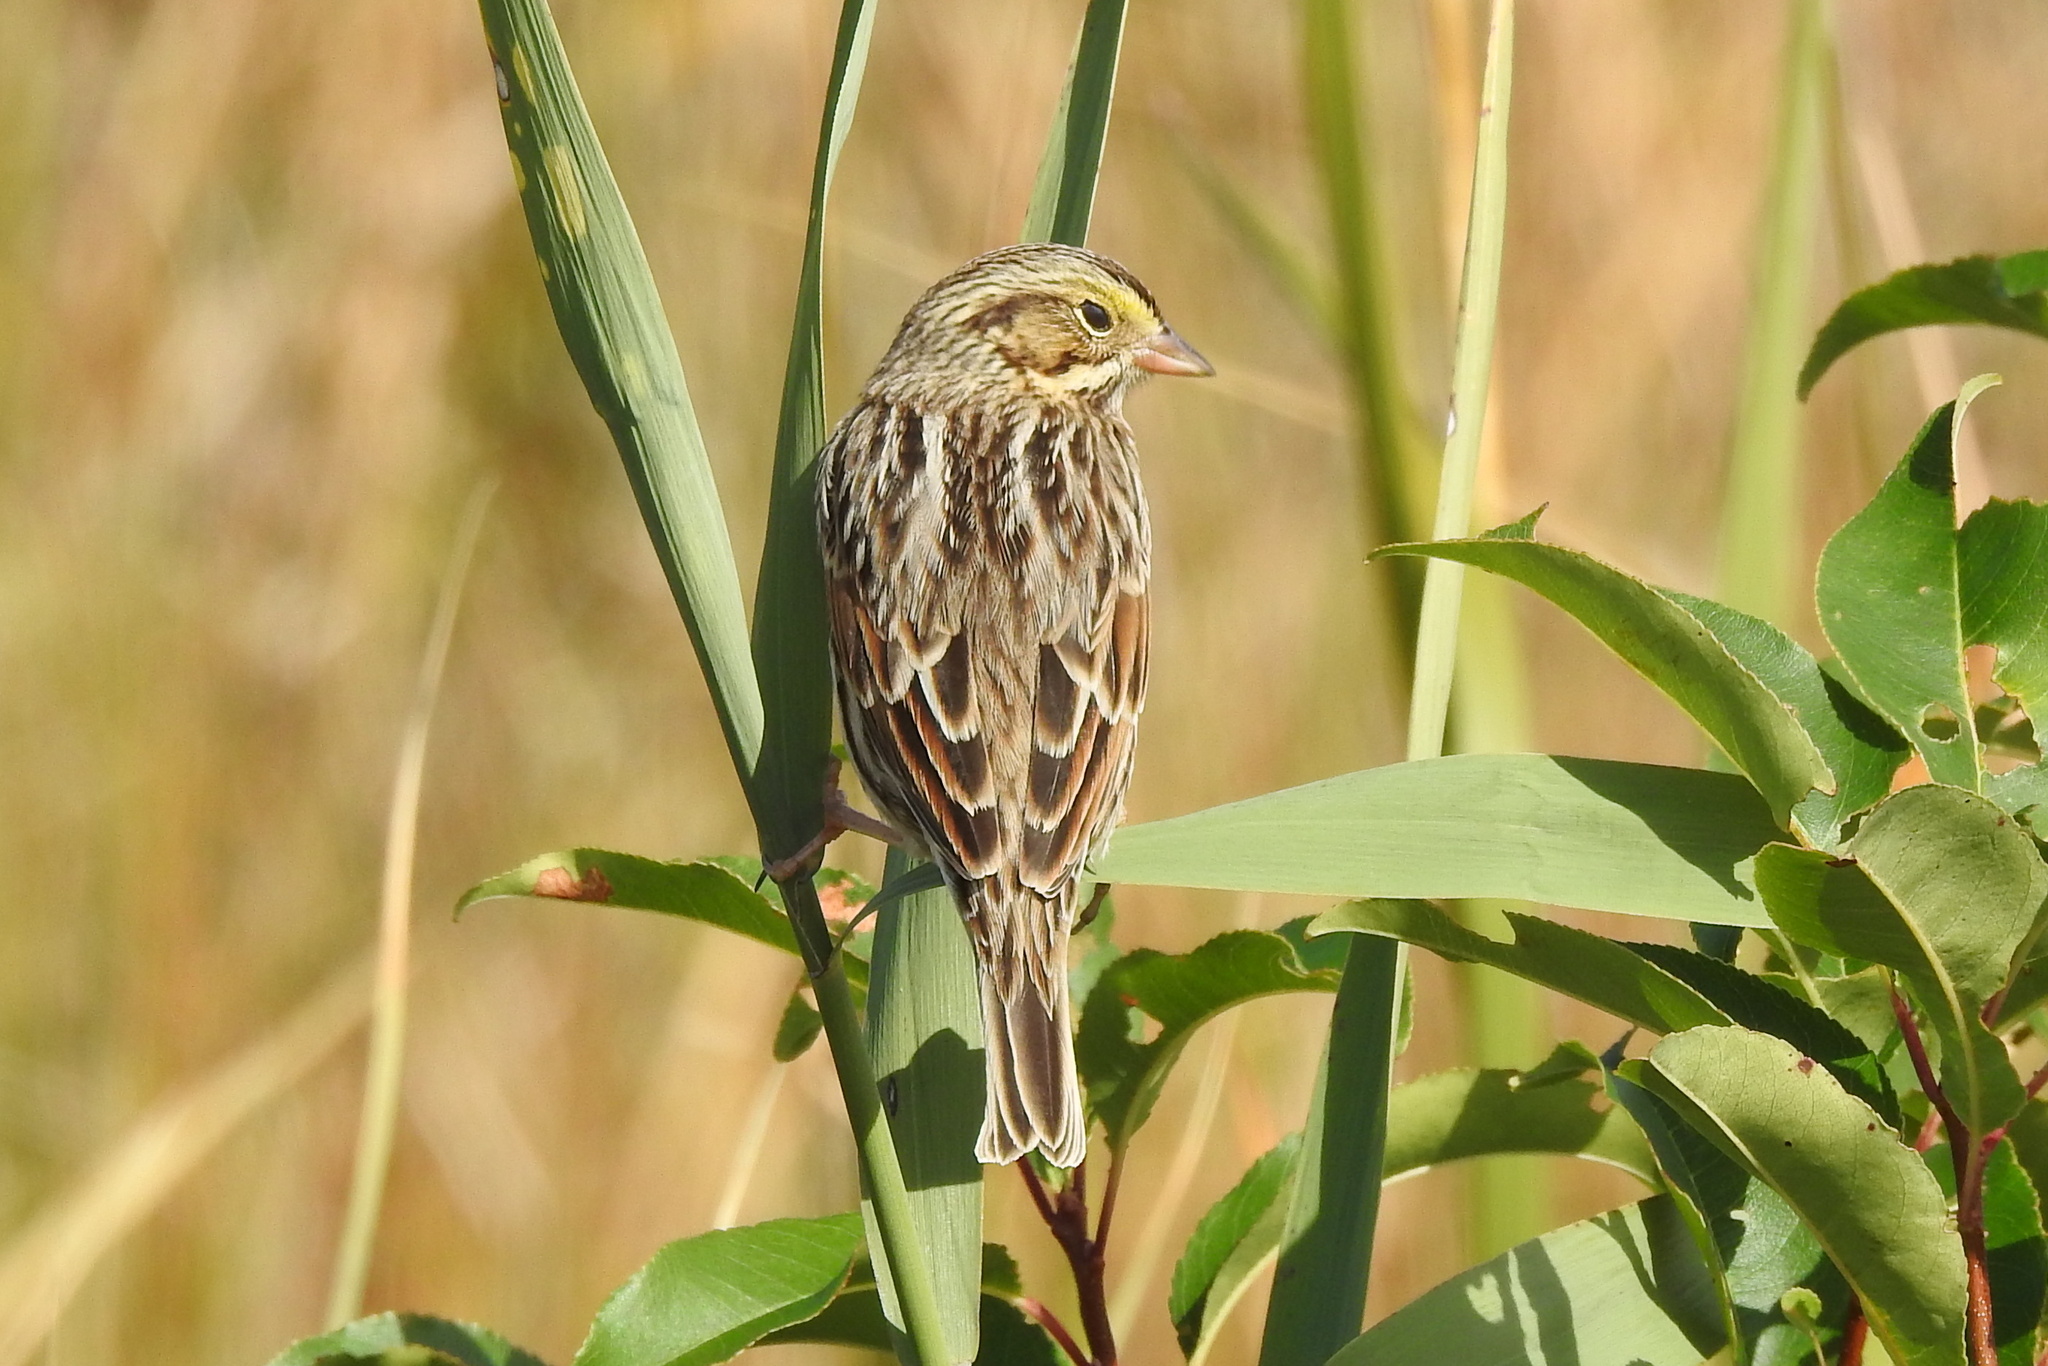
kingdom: Animalia
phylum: Chordata
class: Aves
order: Passeriformes
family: Passerellidae
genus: Passerculus
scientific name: Passerculus sandwichensis
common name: Savannah sparrow
